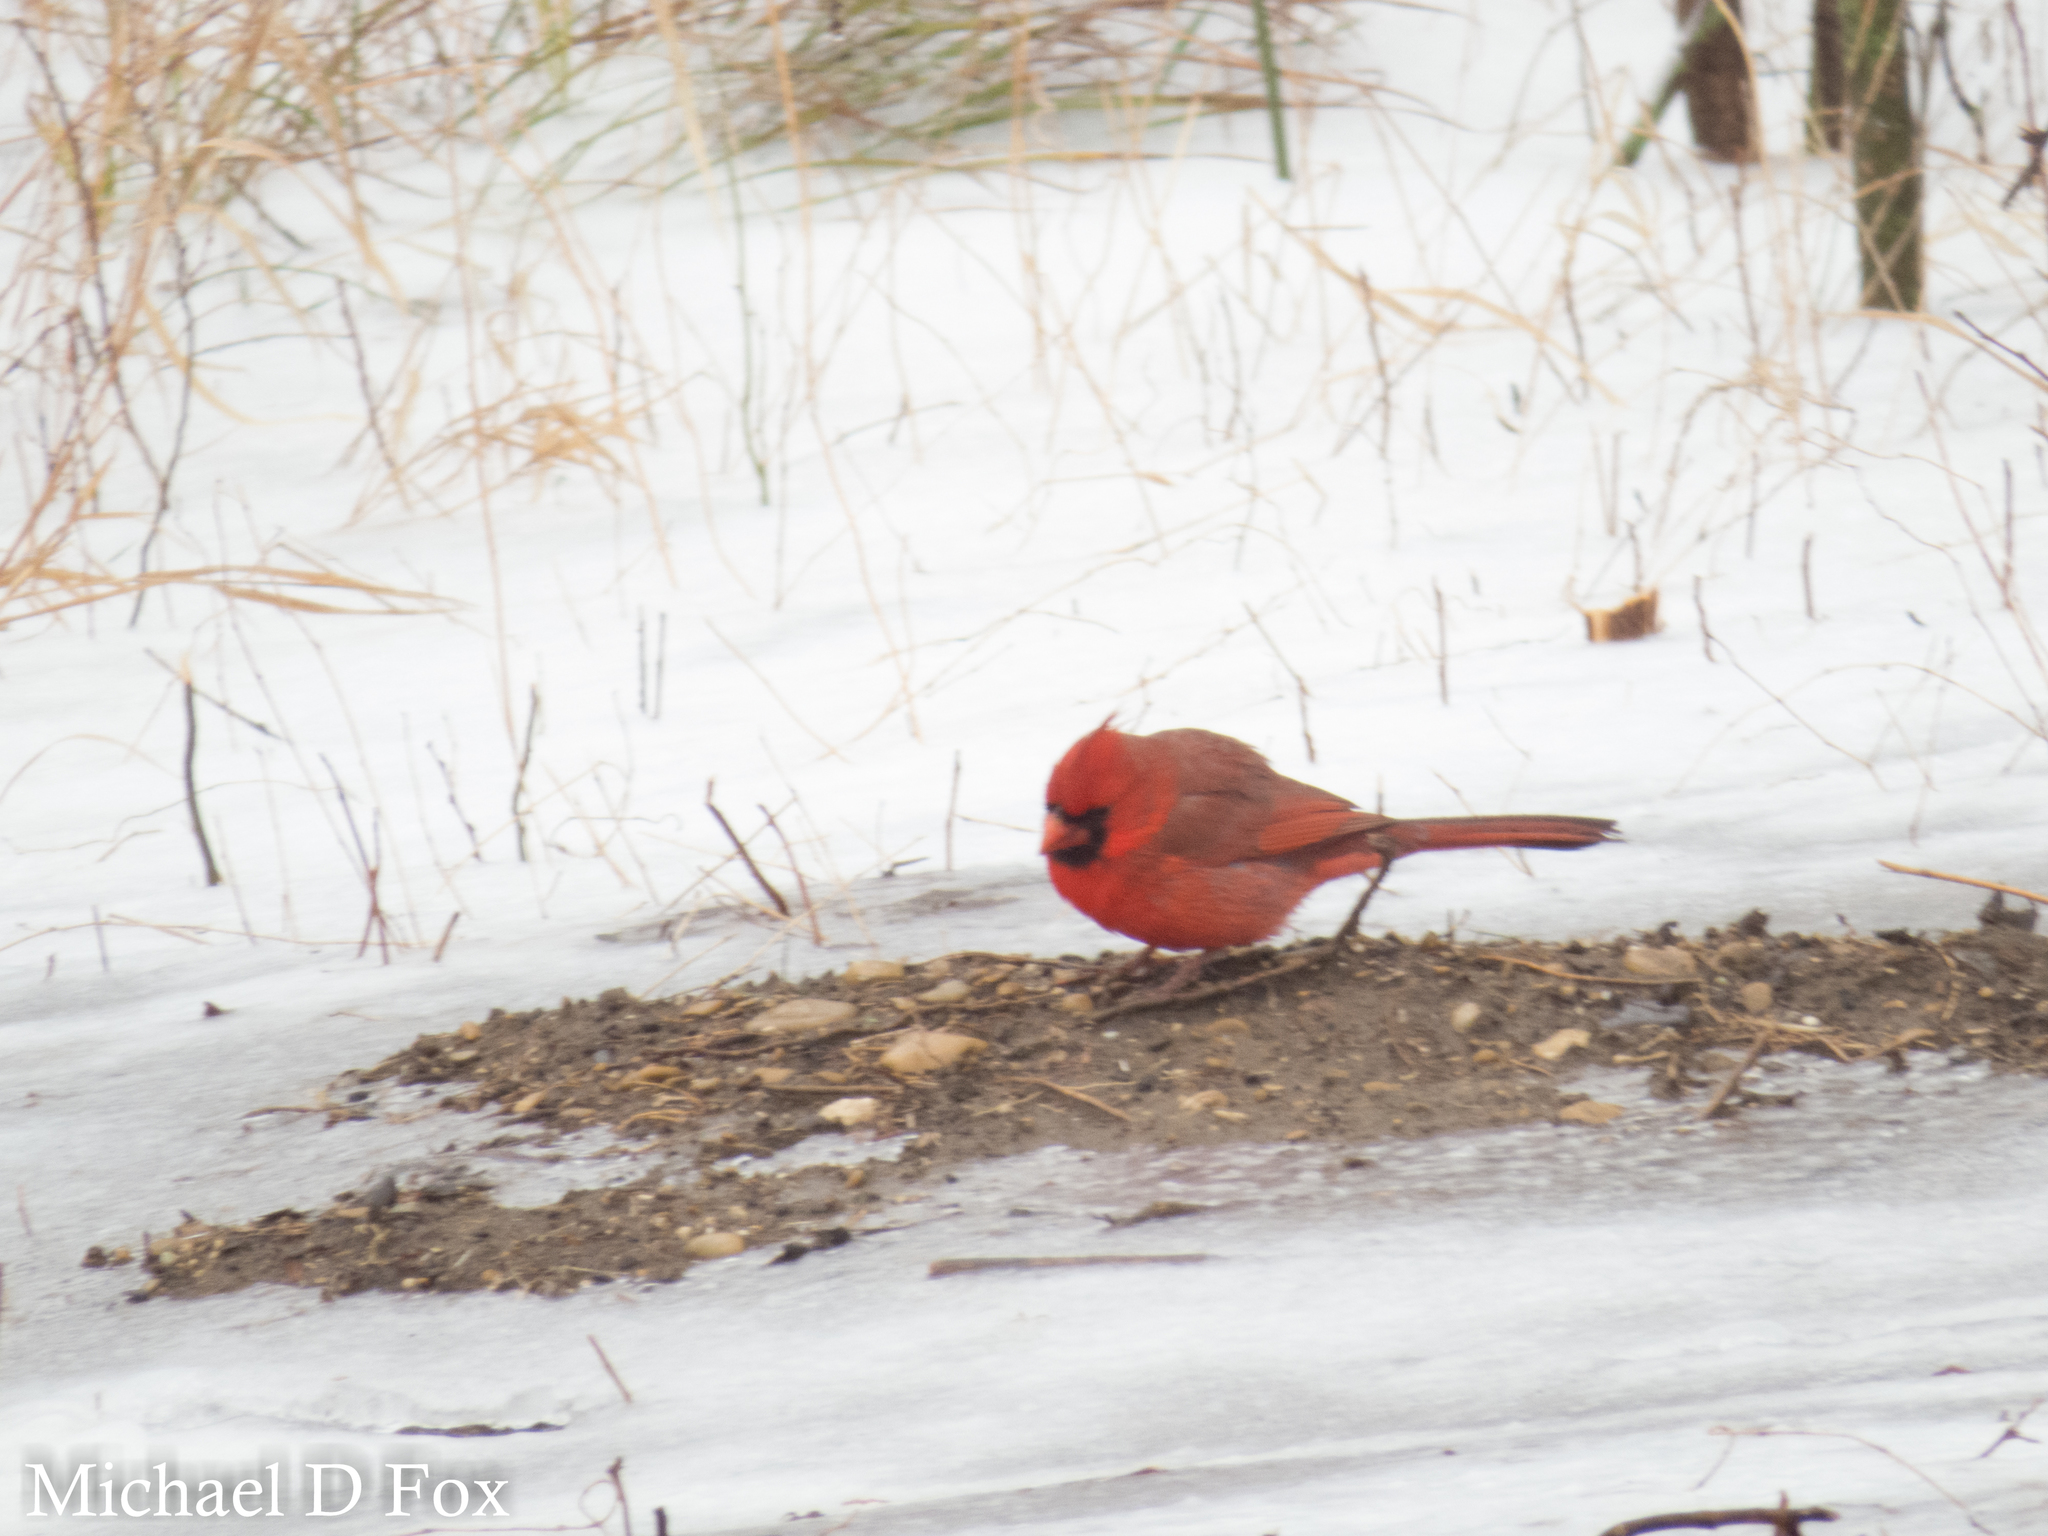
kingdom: Animalia
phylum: Chordata
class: Aves
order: Passeriformes
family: Cardinalidae
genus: Cardinalis
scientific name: Cardinalis cardinalis
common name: Northern cardinal
